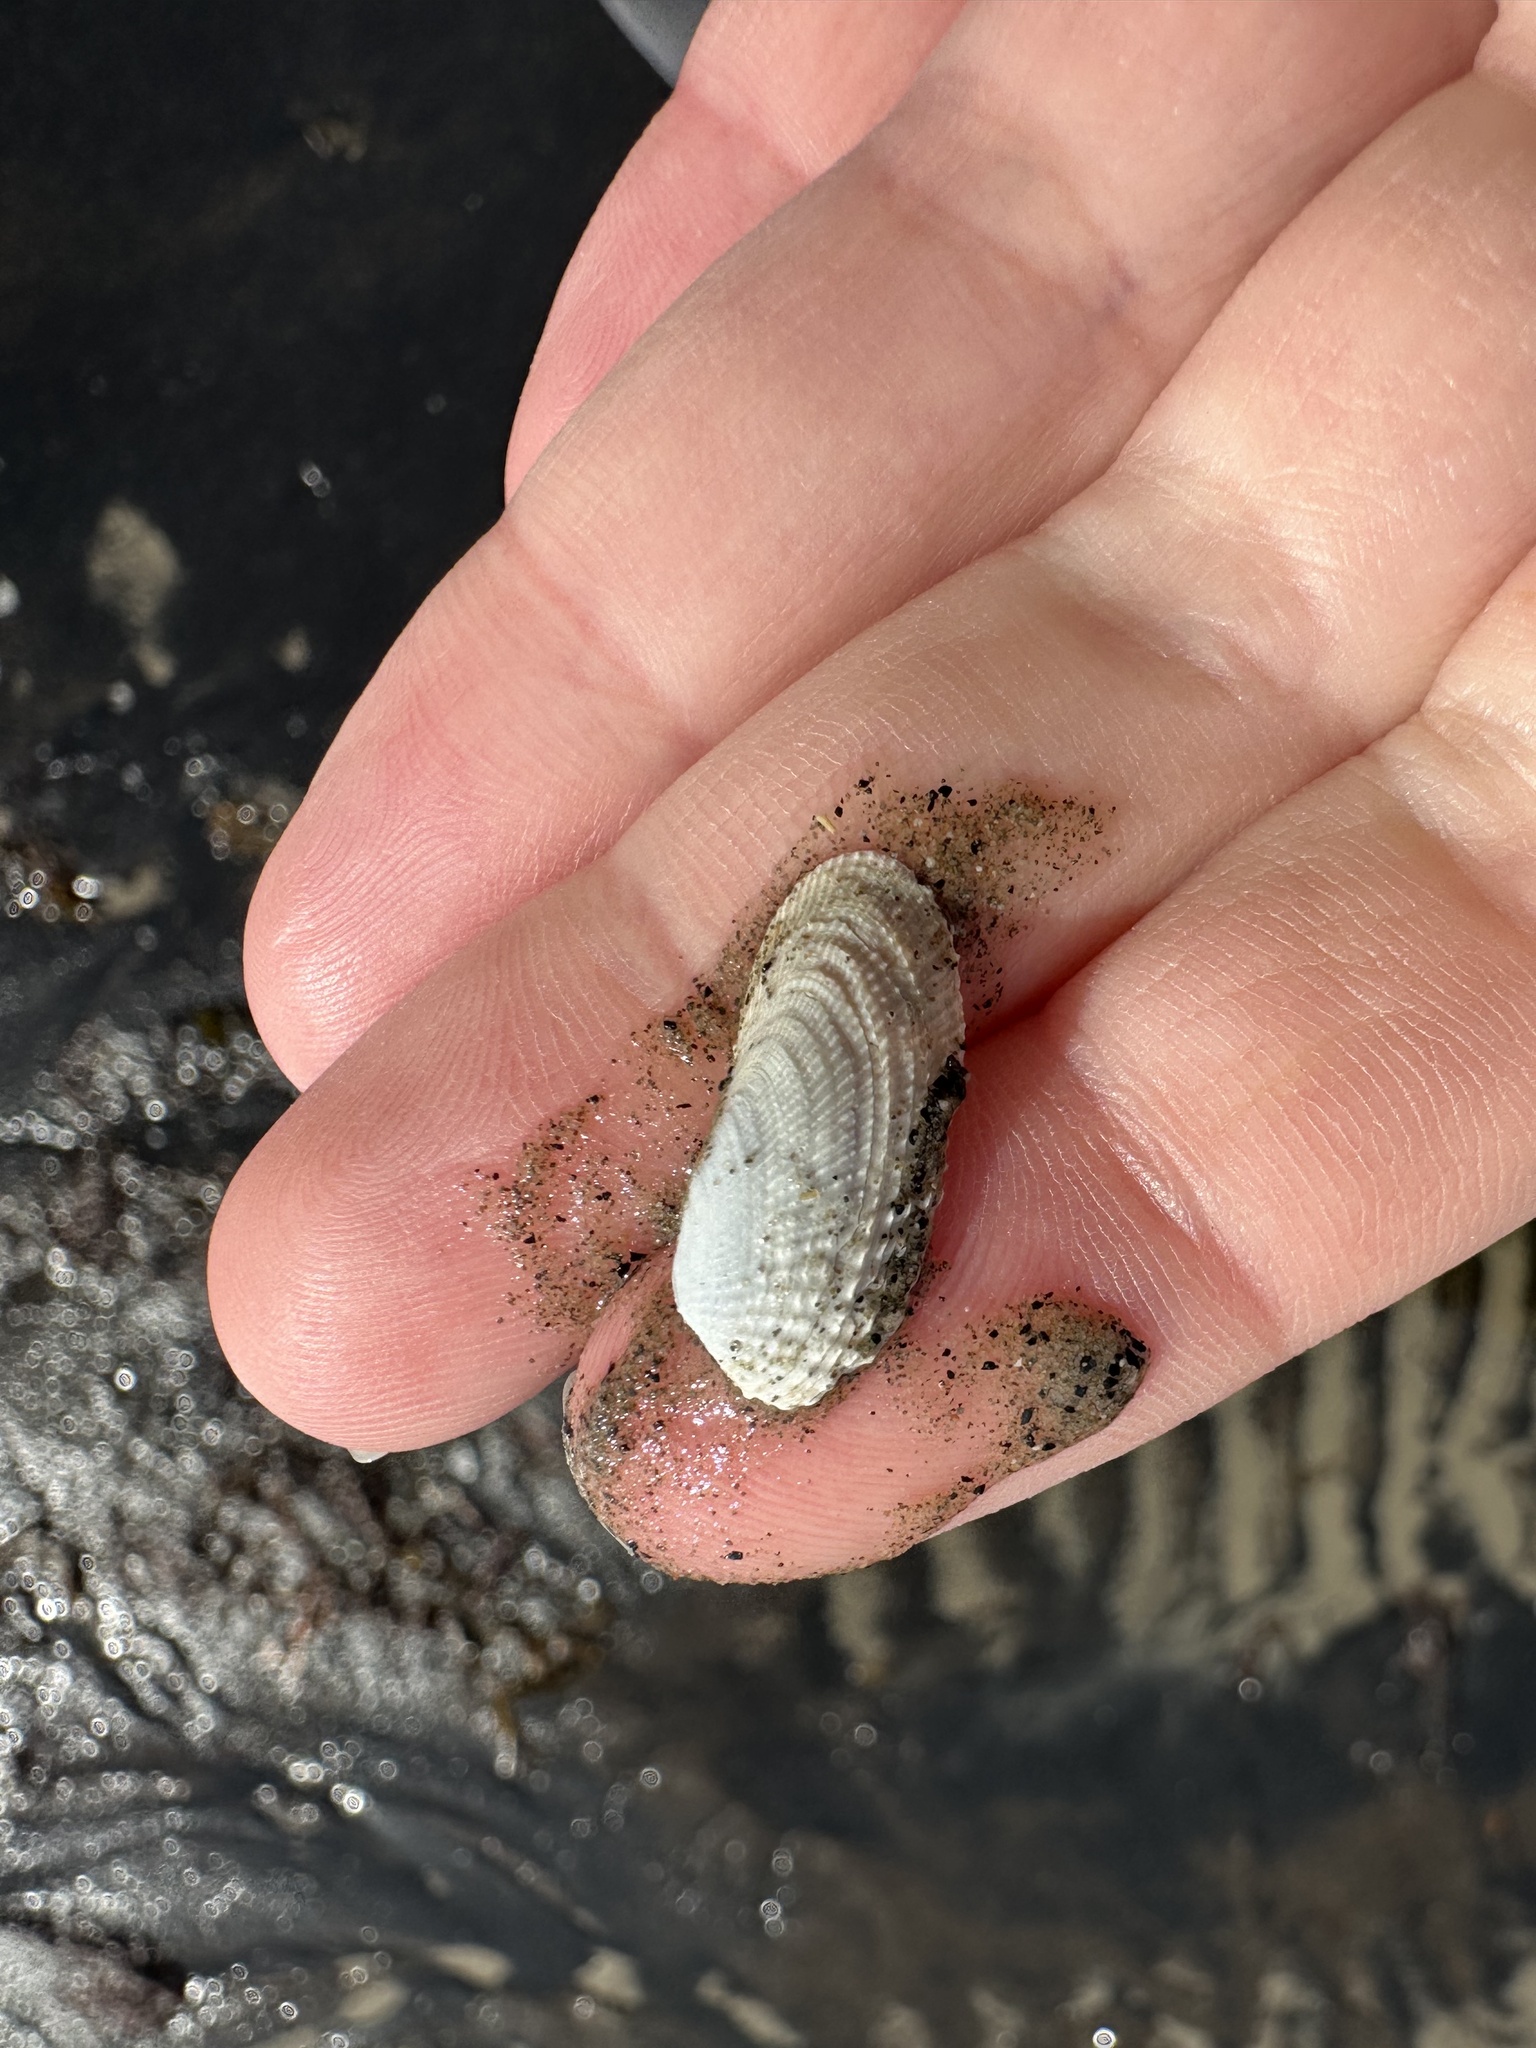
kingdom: Animalia
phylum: Mollusca
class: Bivalvia
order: Venerida
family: Veneridae
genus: Petricolaria
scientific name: Petricolaria pholadiformis
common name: American piddock
